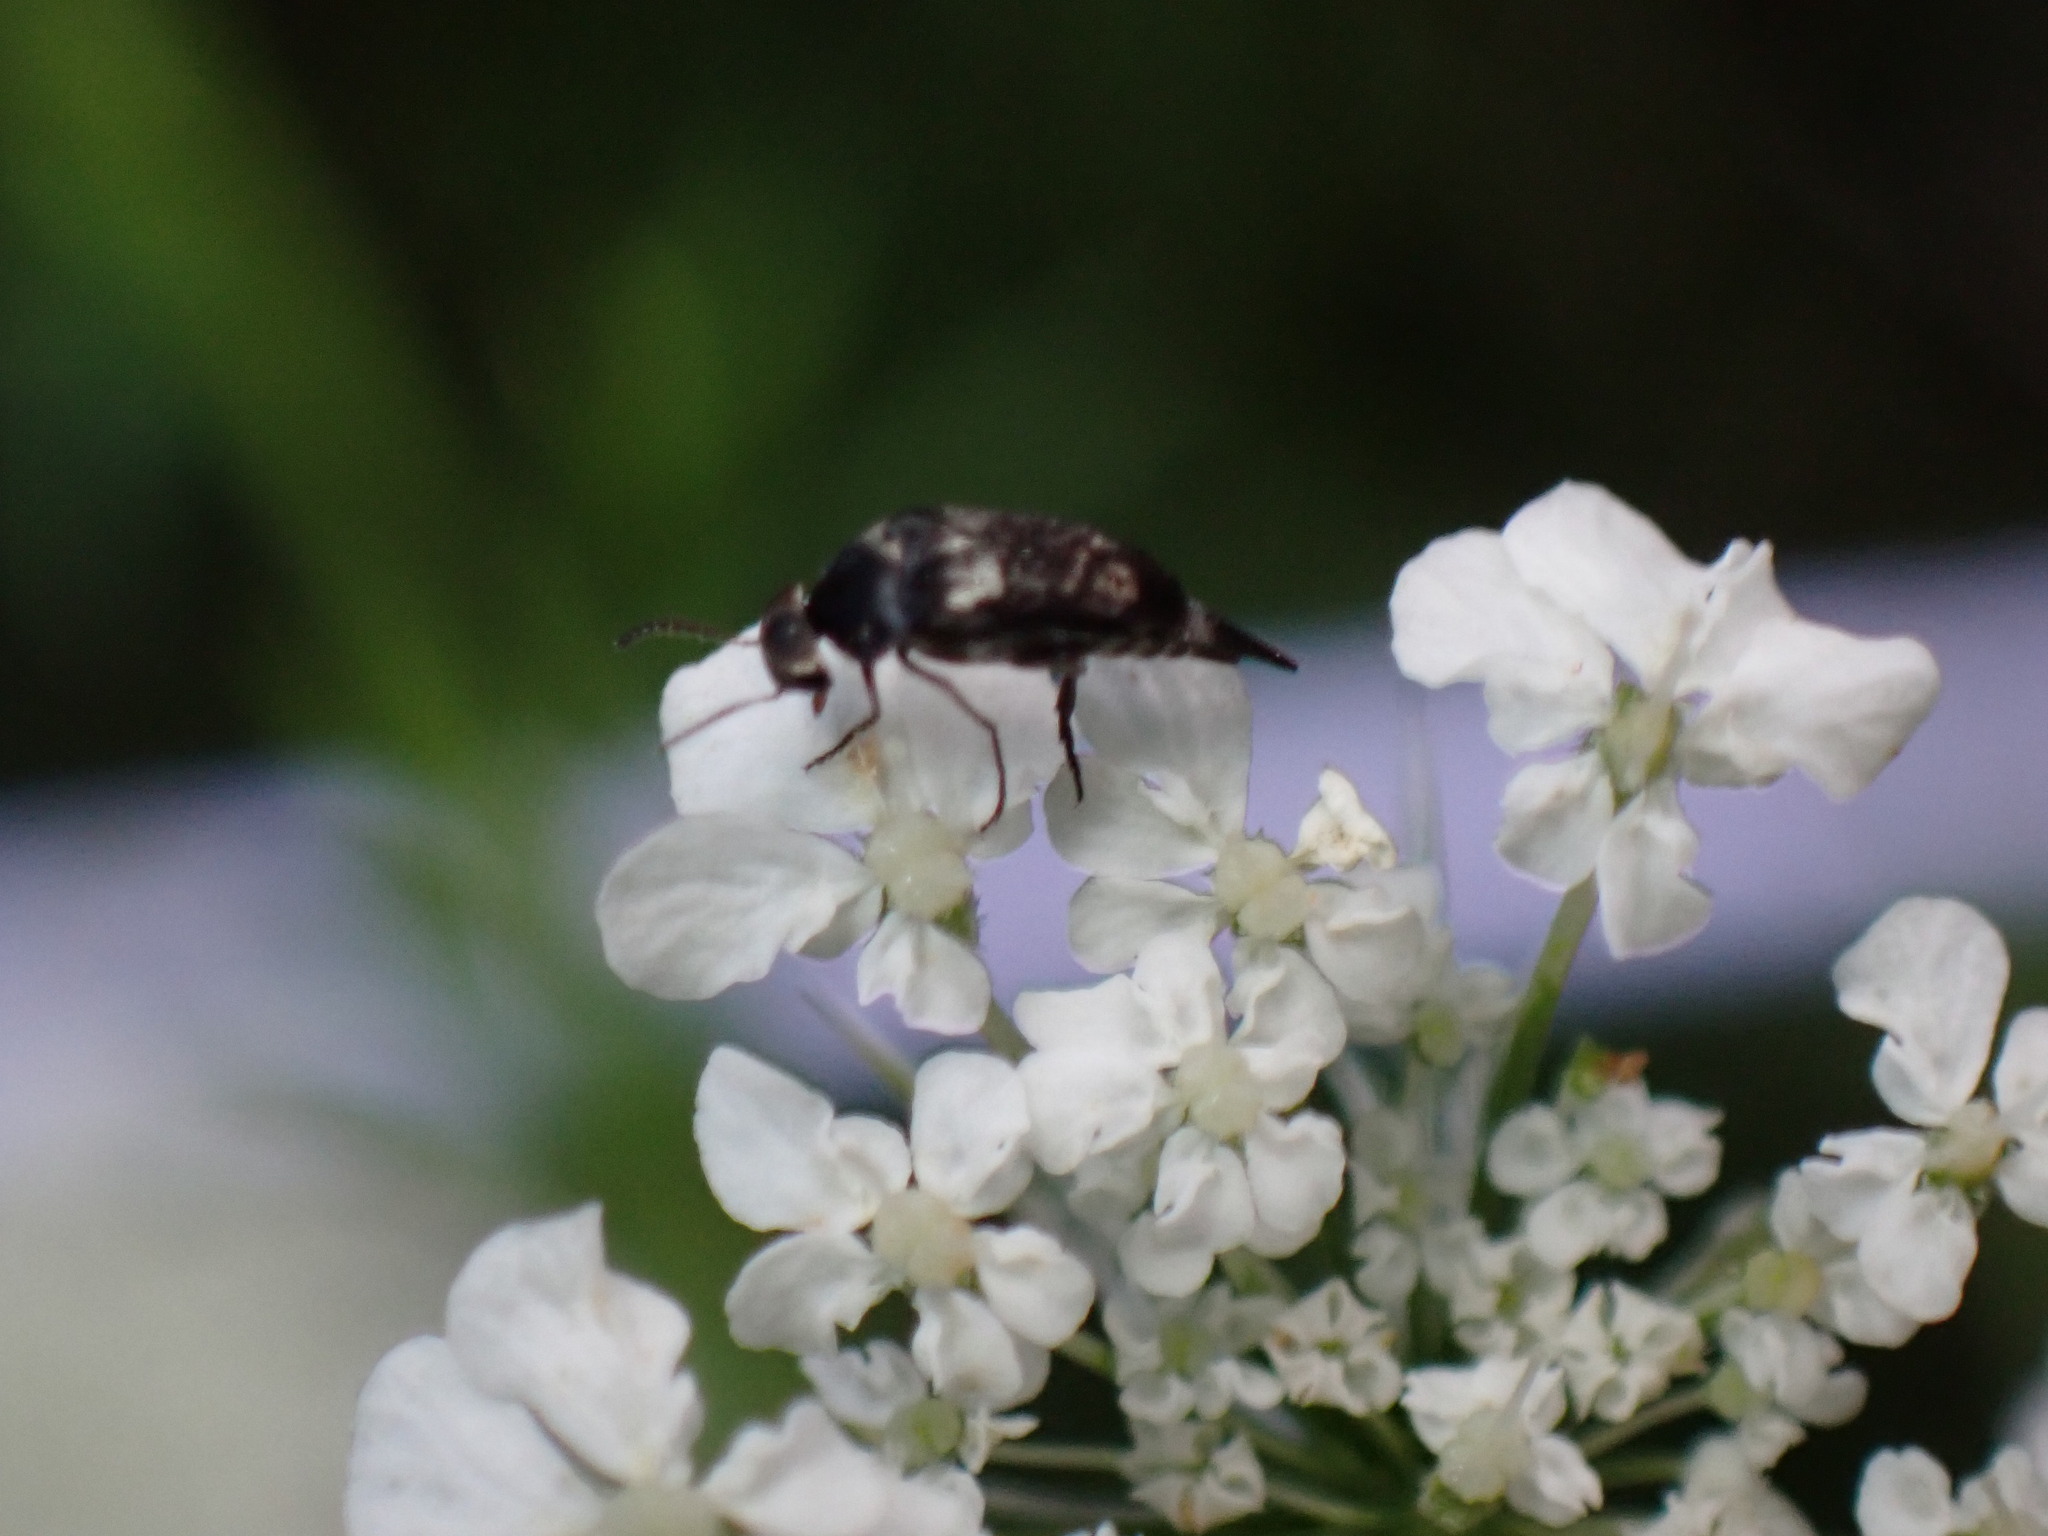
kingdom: Animalia
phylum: Arthropoda
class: Insecta
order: Coleoptera
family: Mordellidae
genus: Mordella
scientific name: Mordella marginata
